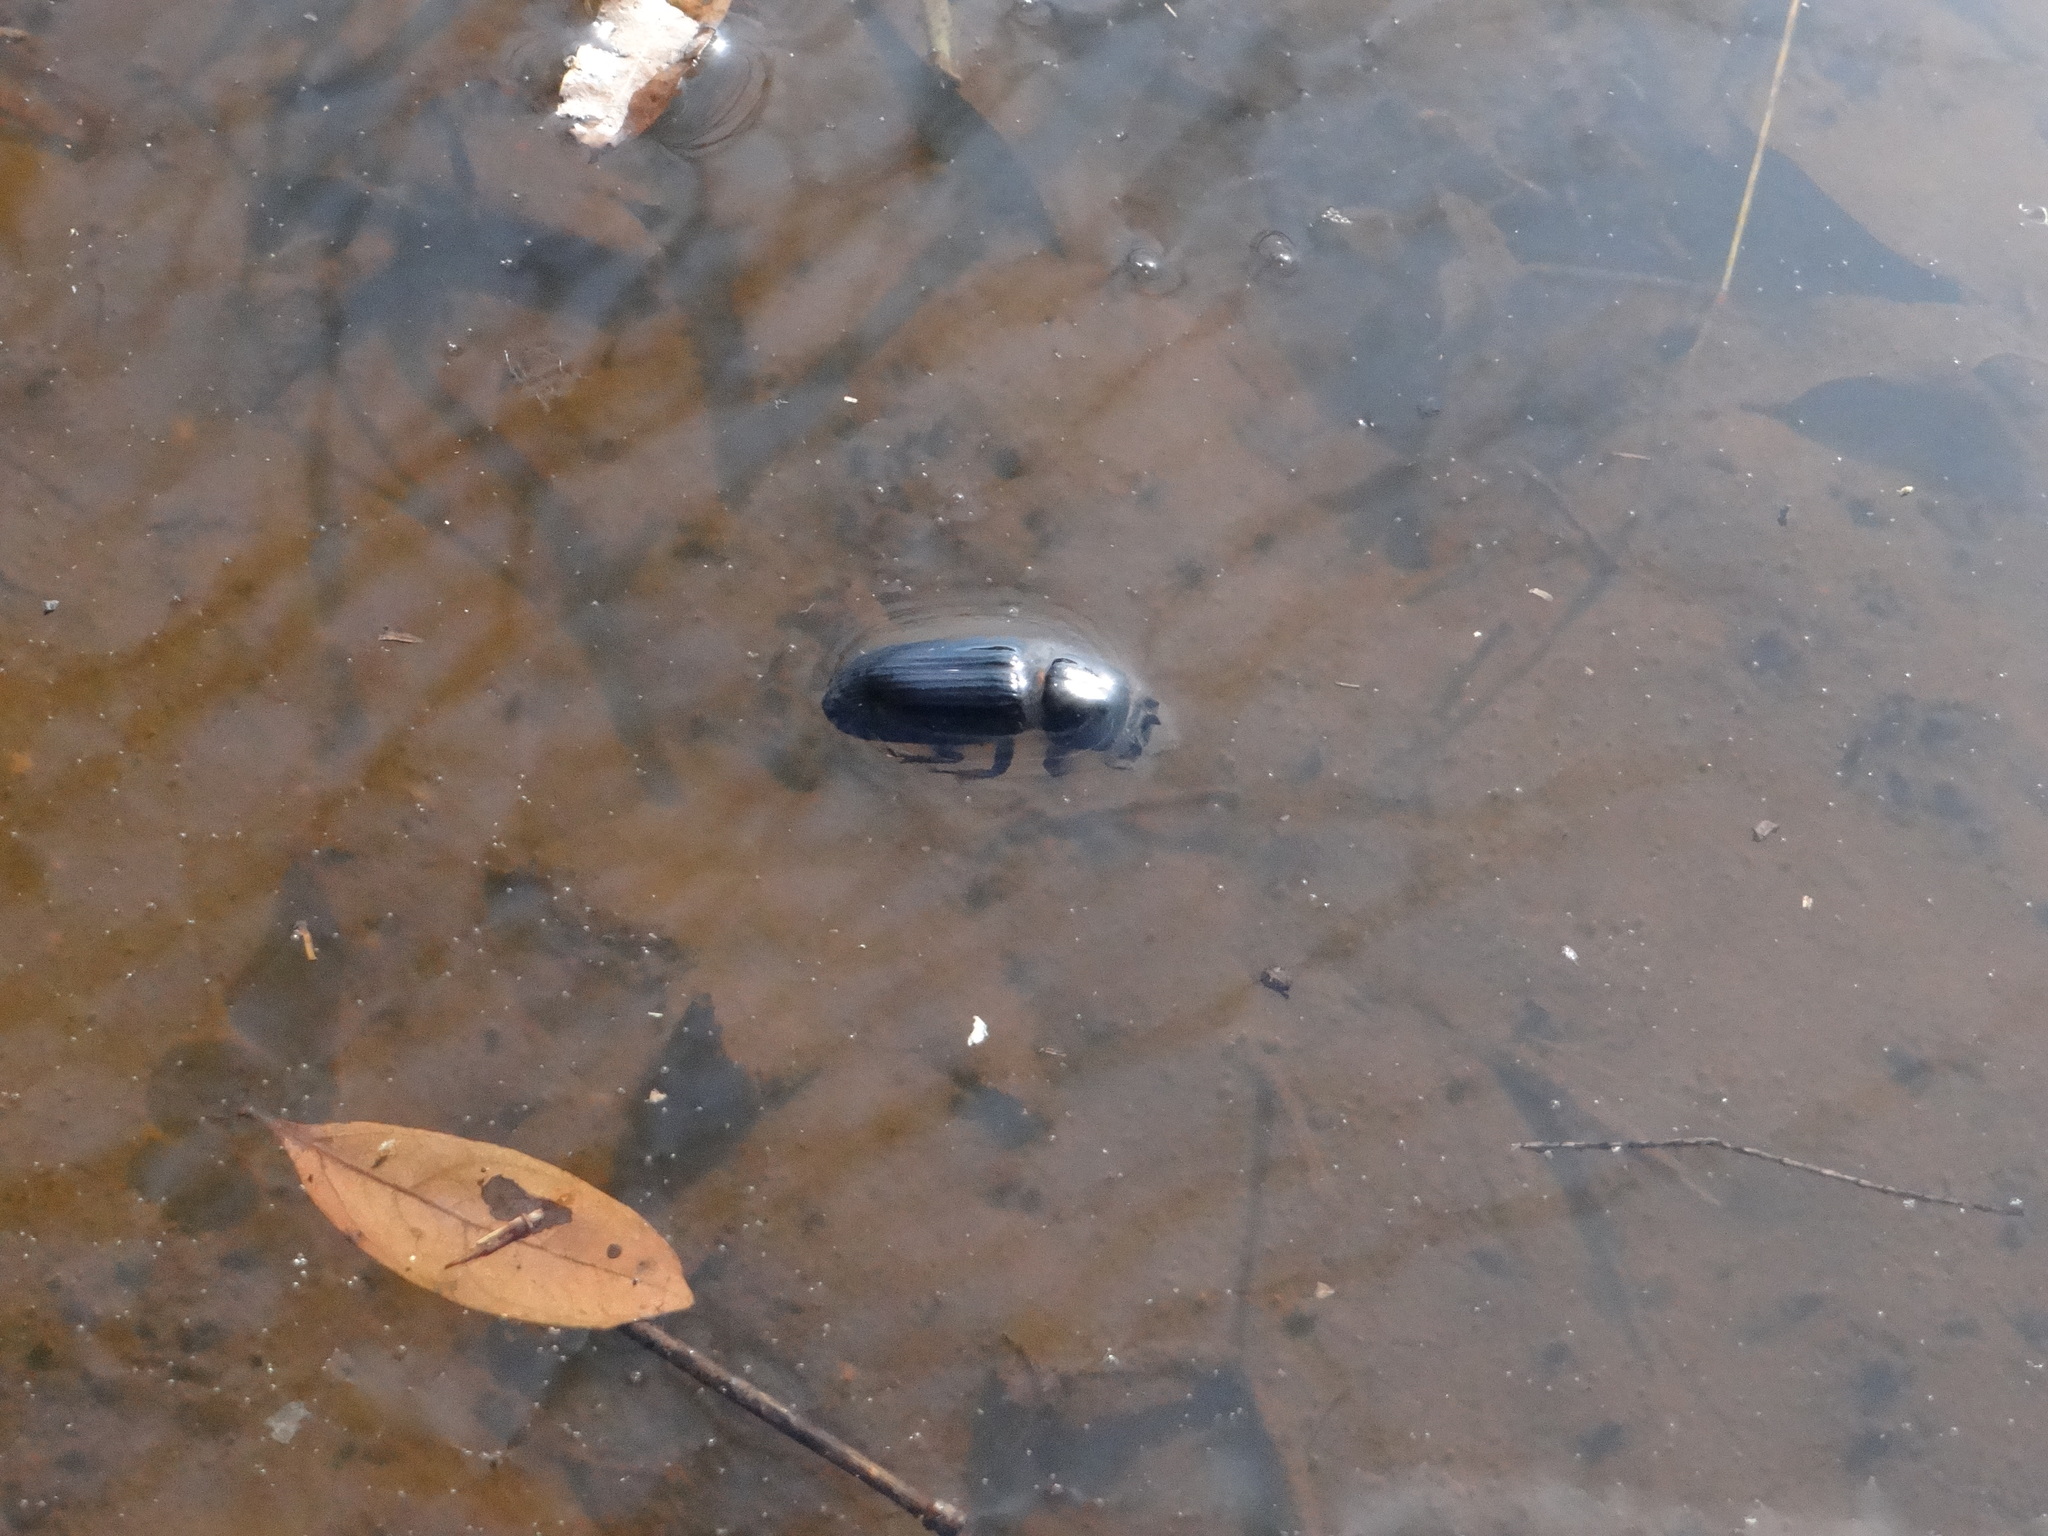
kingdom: Animalia
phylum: Arthropoda
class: Insecta
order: Coleoptera
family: Passalidae
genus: Odontotaenius
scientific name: Odontotaenius disjunctus
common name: Patent leather beetle
